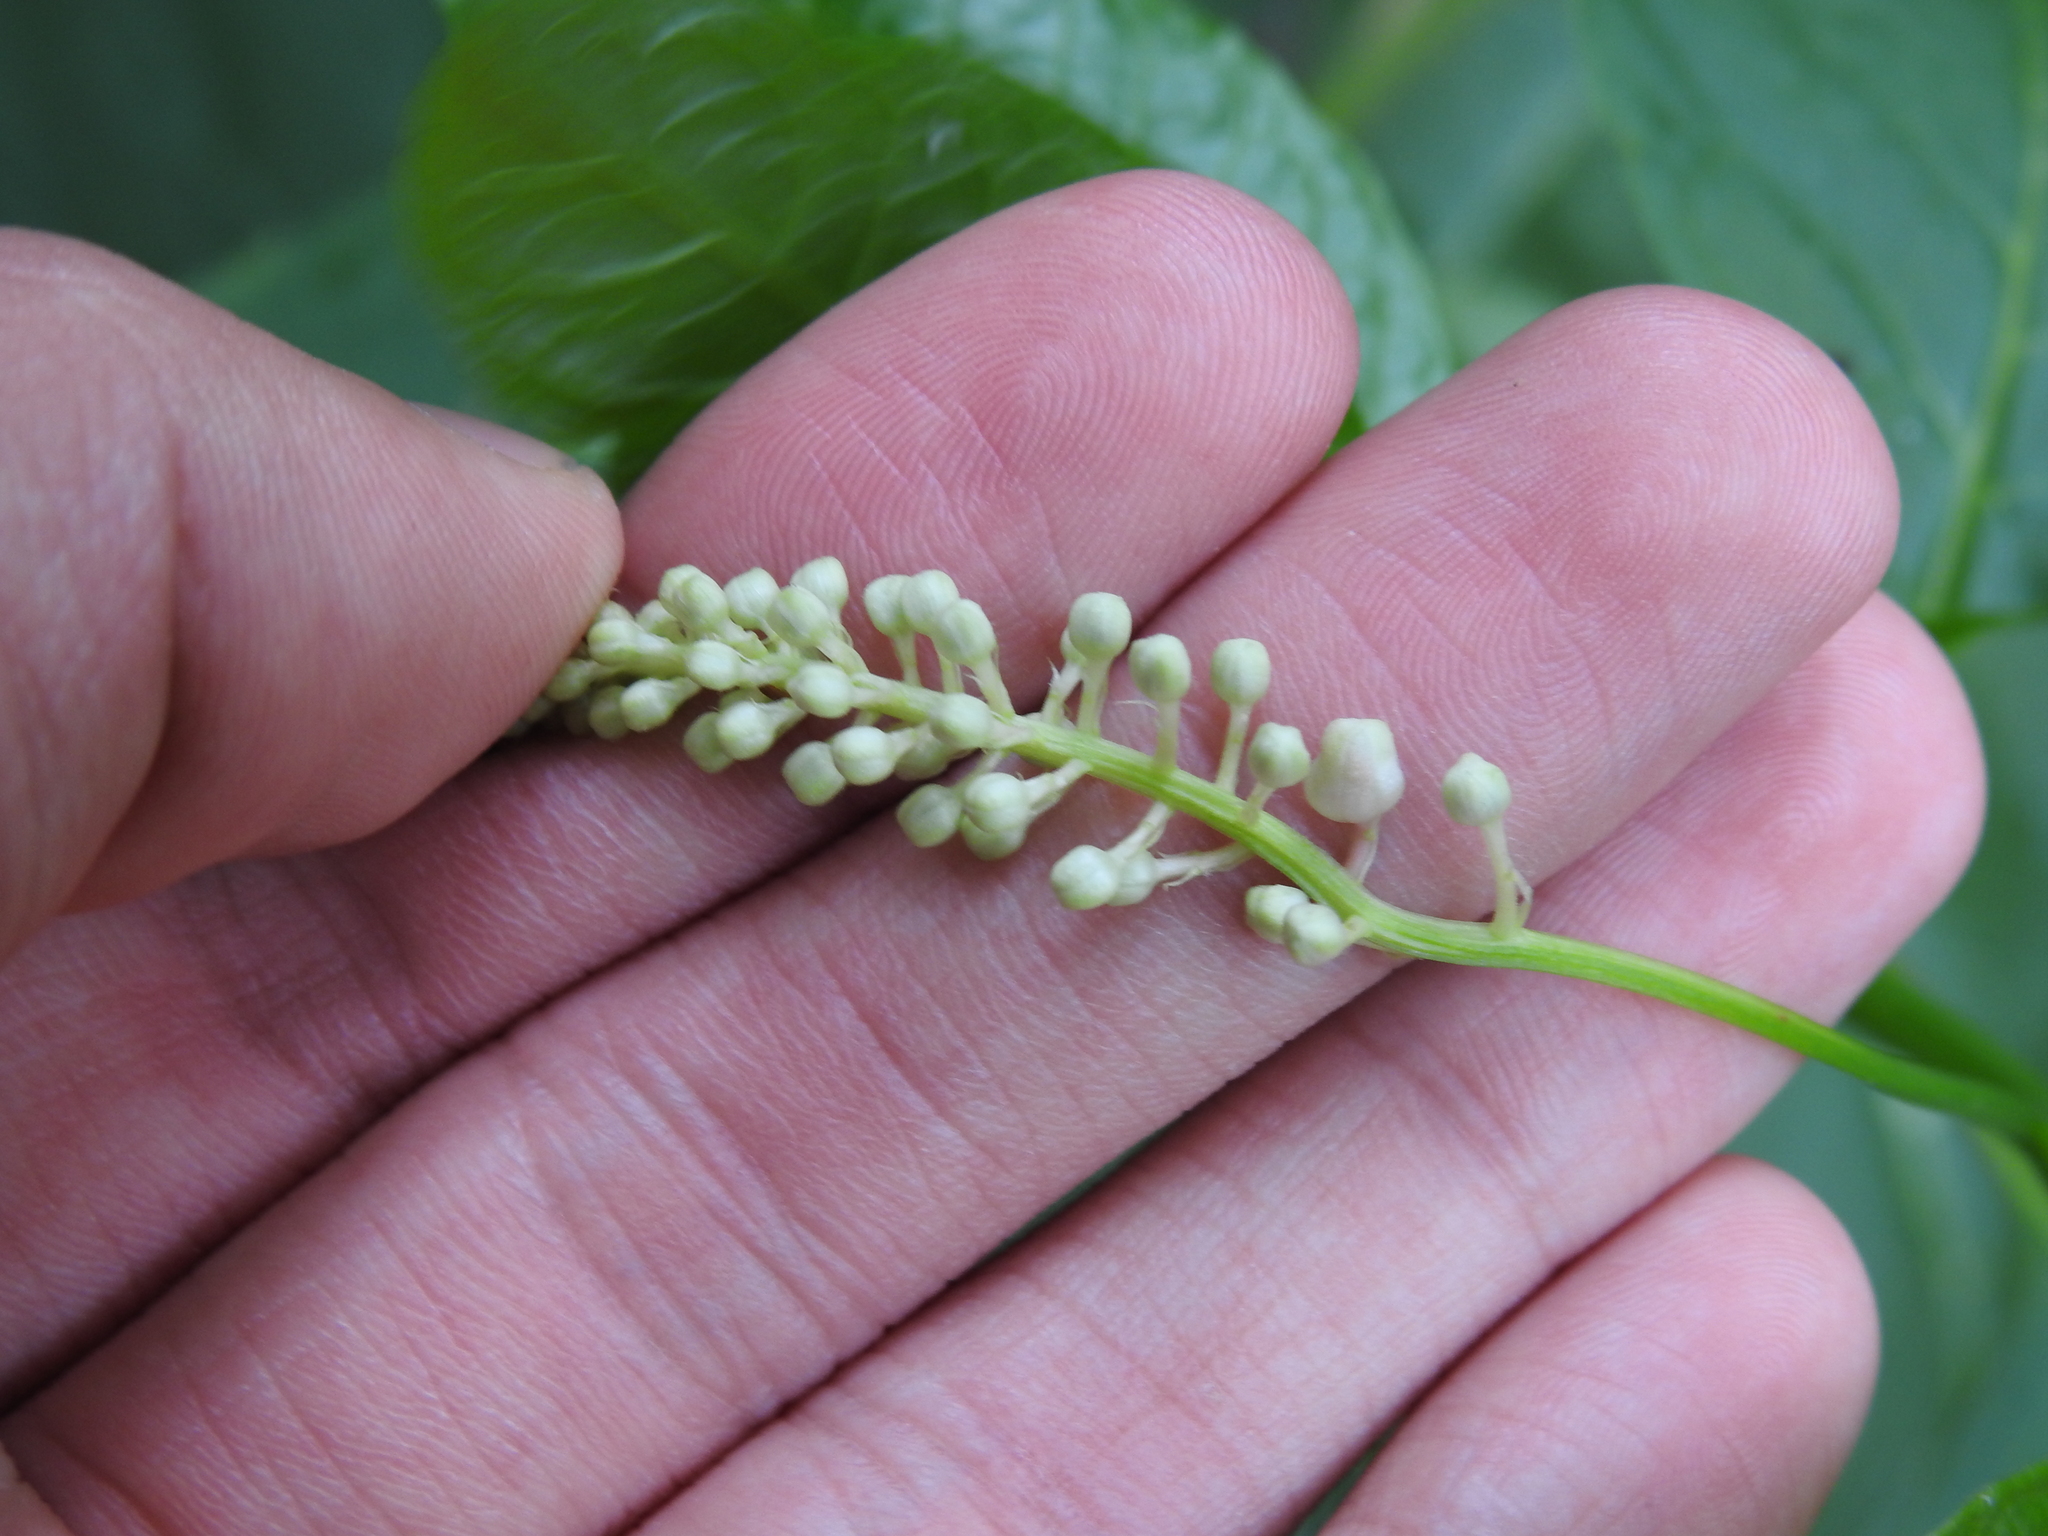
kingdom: Plantae
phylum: Tracheophyta
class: Magnoliopsida
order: Caryophyllales
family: Phytolaccaceae
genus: Phytolacca
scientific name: Phytolacca americana
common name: American pokeweed
